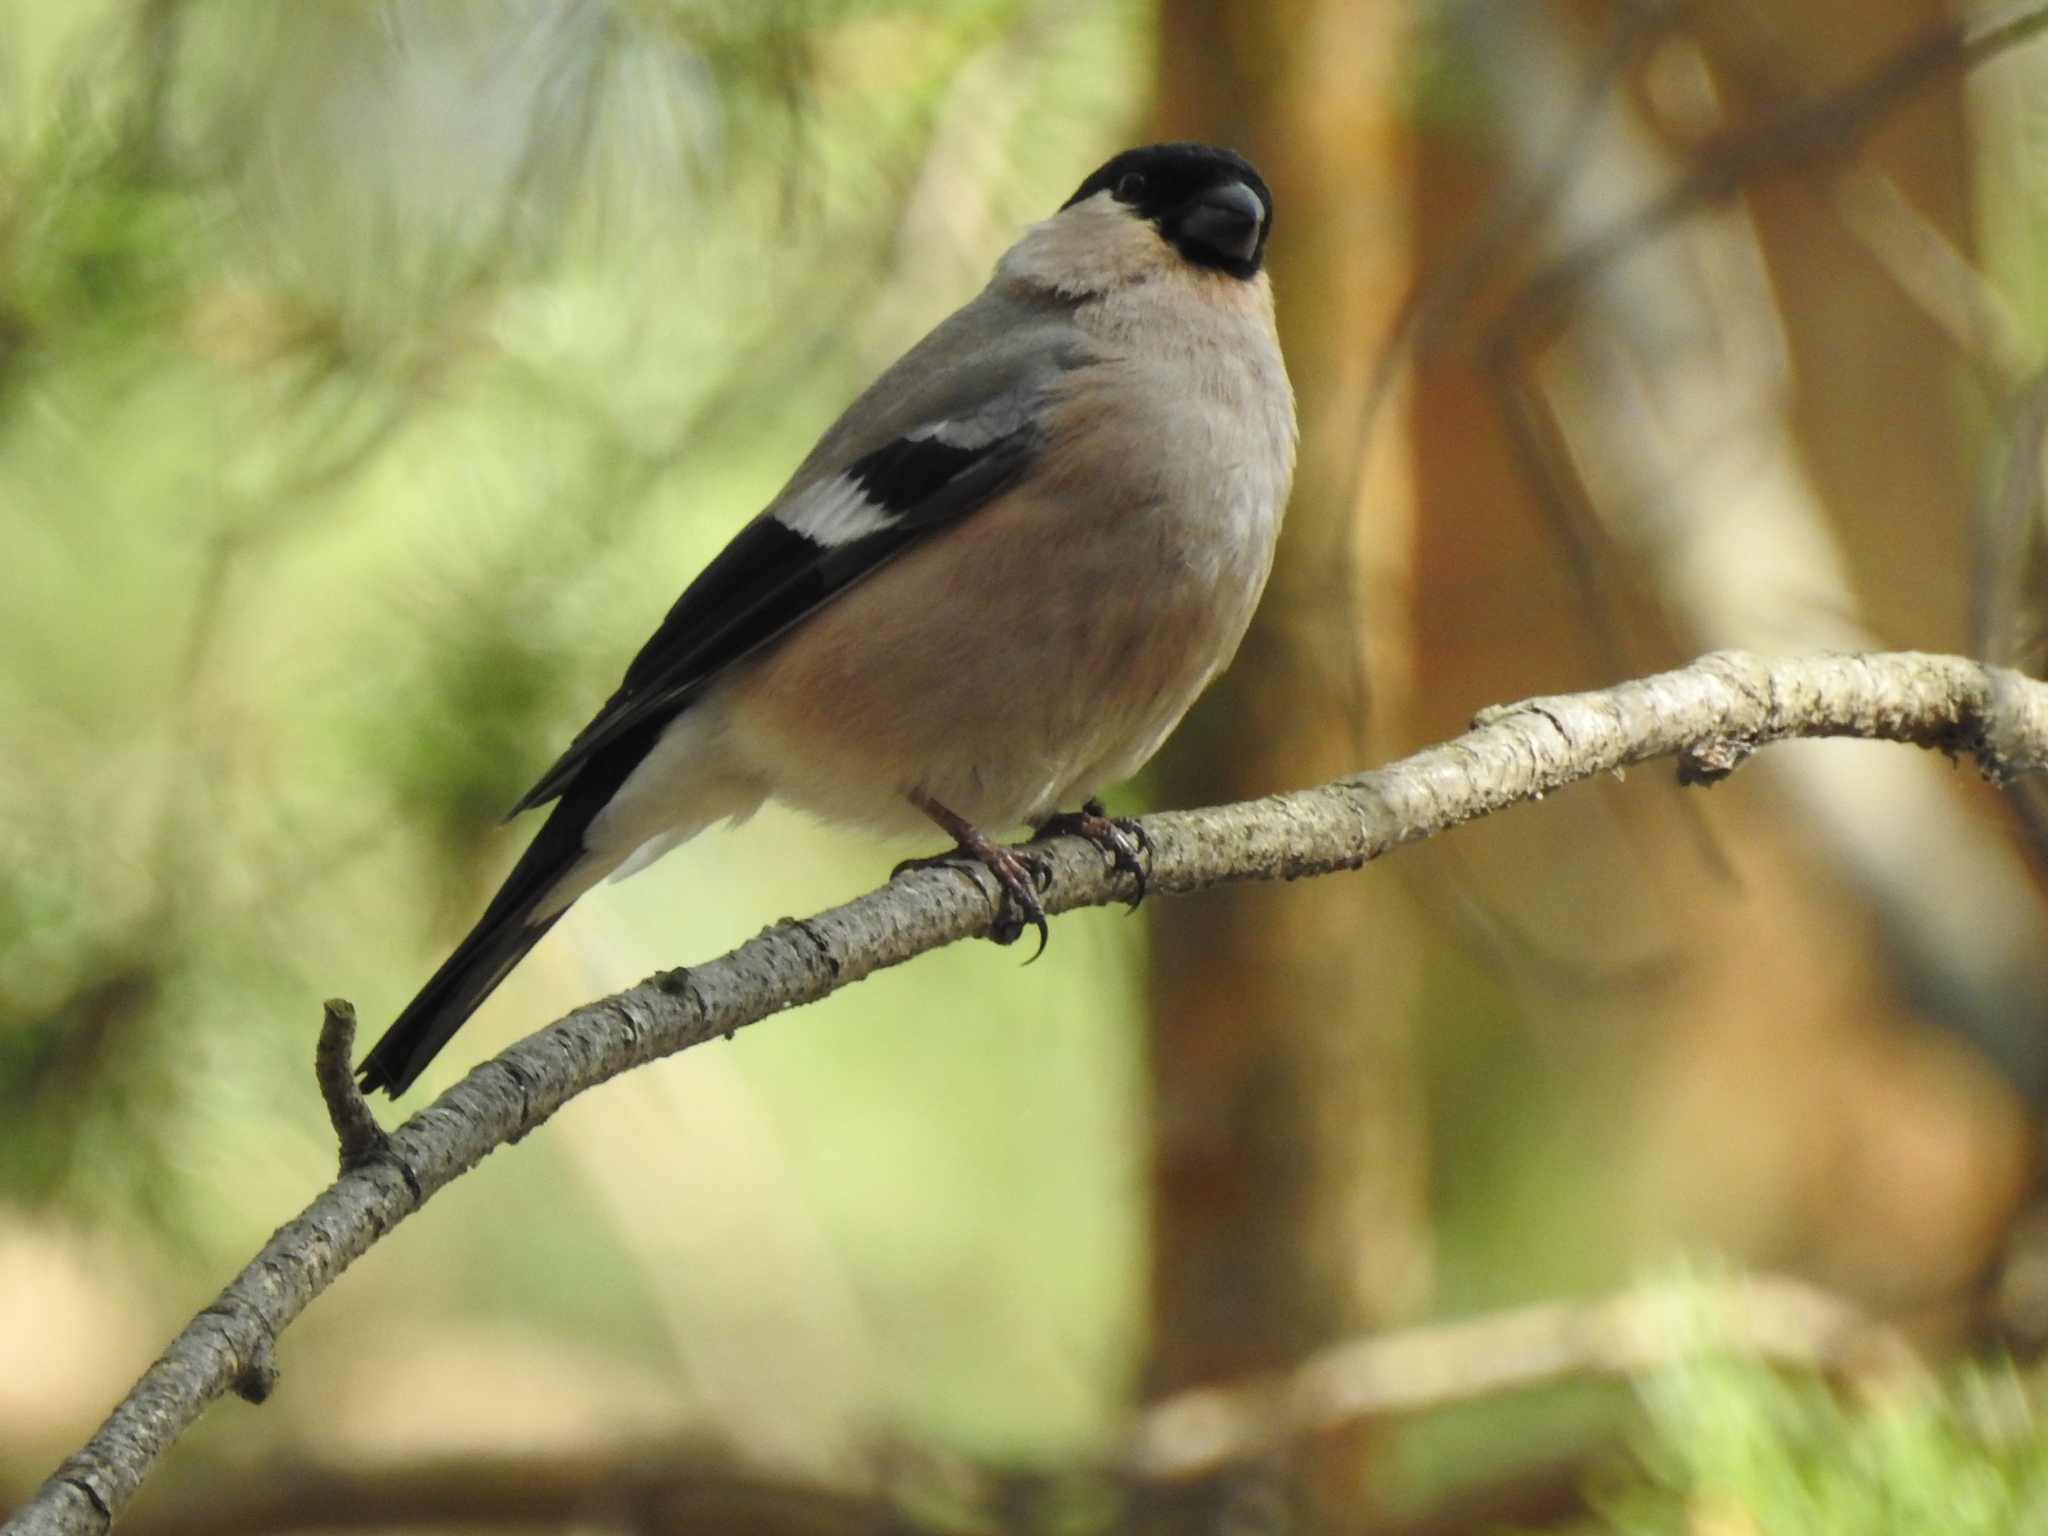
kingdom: Animalia
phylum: Chordata
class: Aves
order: Passeriformes
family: Fringillidae
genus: Pyrrhula
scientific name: Pyrrhula pyrrhula
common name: Eurasian bullfinch
